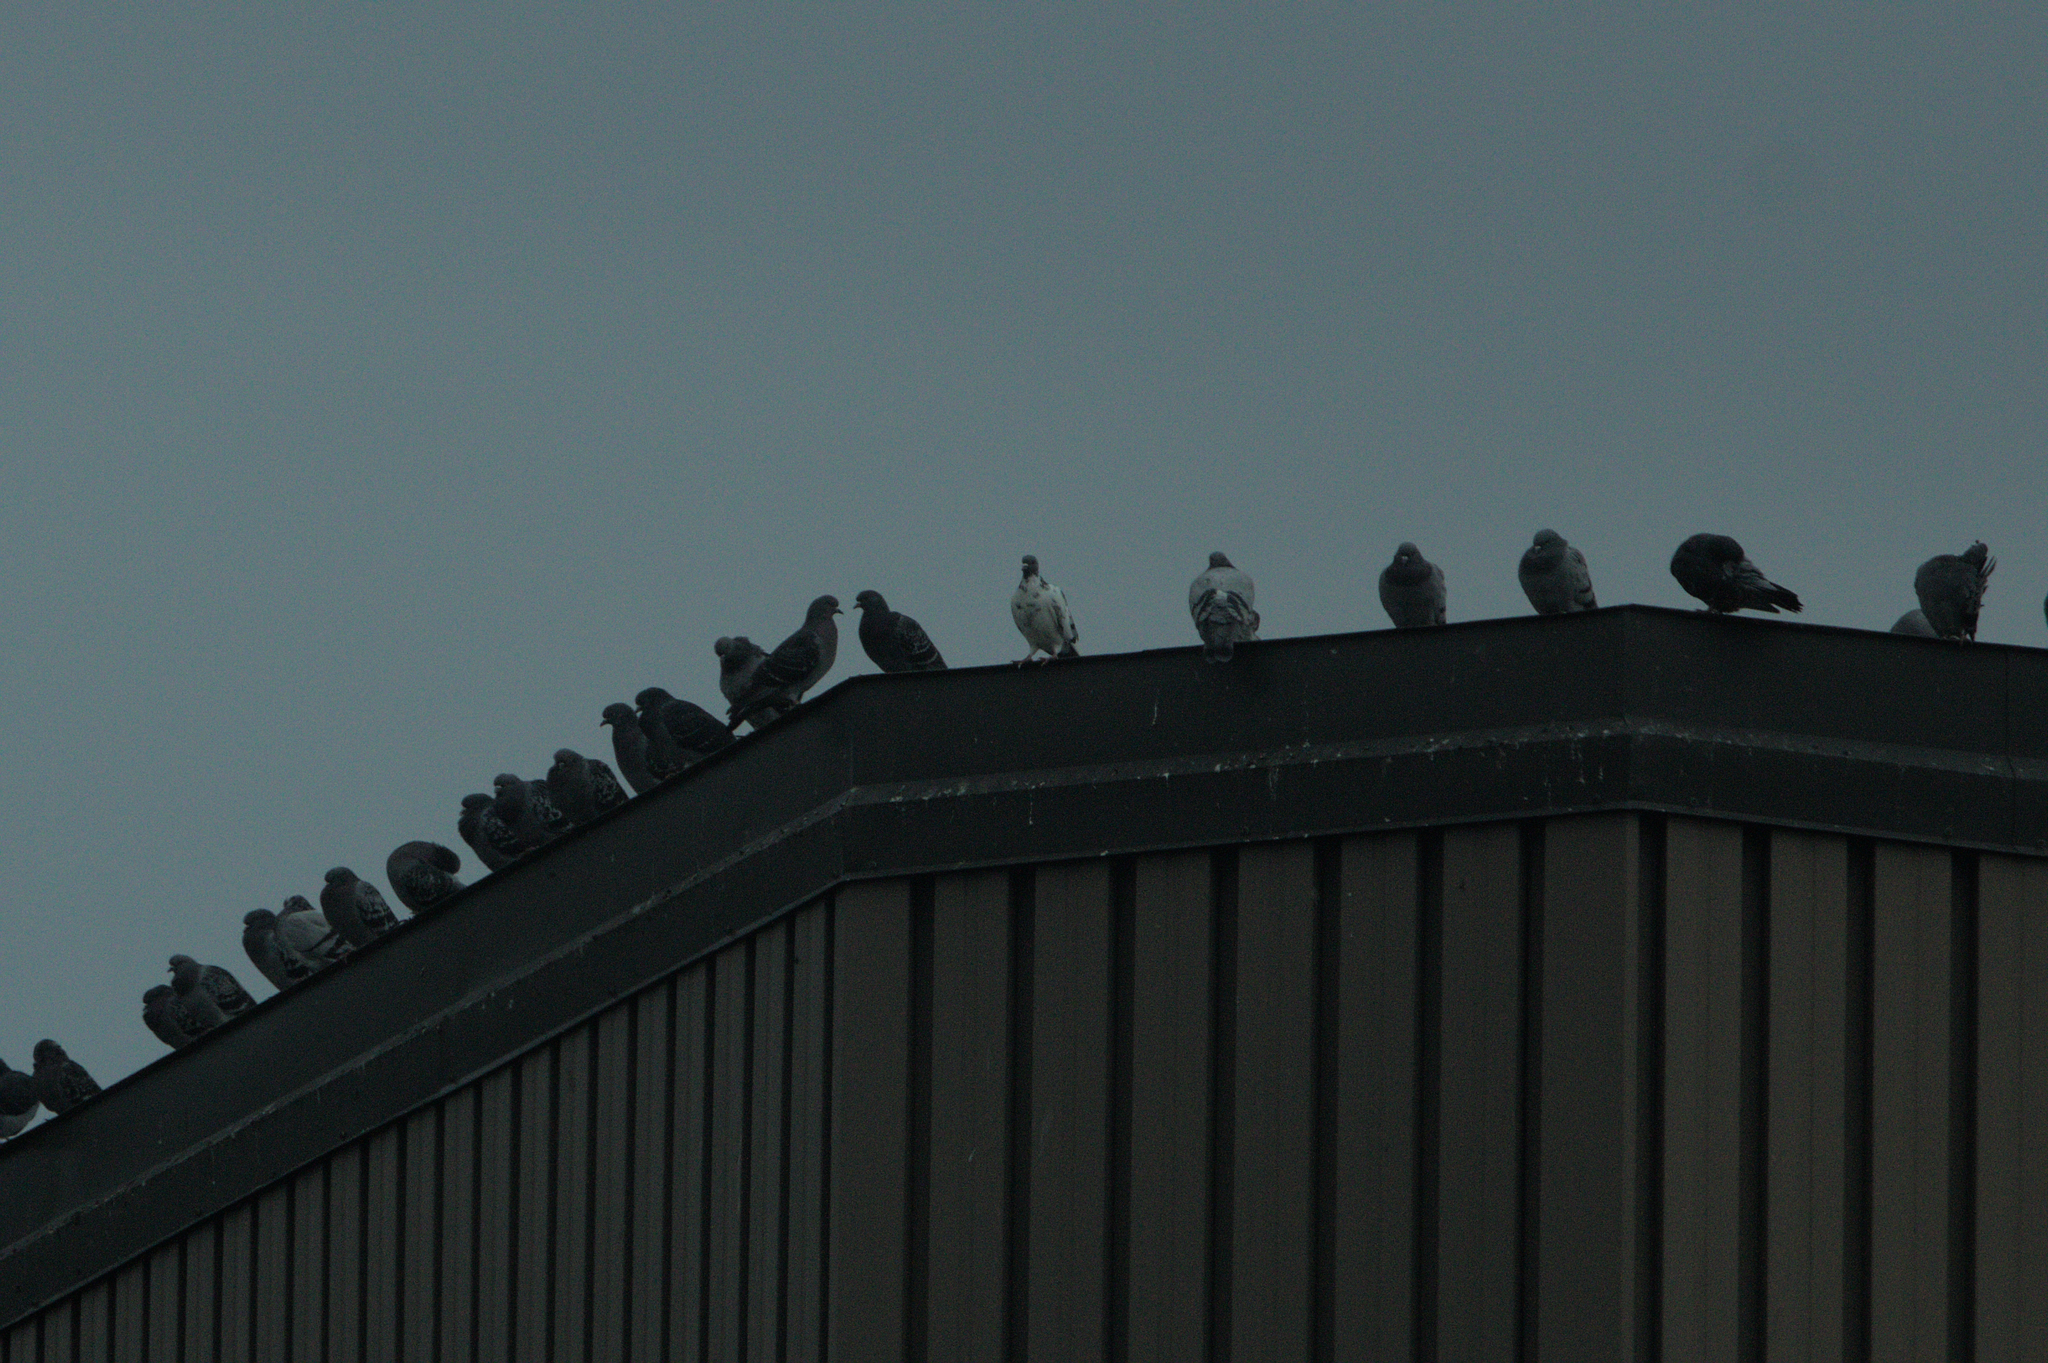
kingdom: Animalia
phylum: Chordata
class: Aves
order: Columbiformes
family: Columbidae
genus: Columba
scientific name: Columba livia
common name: Rock pigeon
